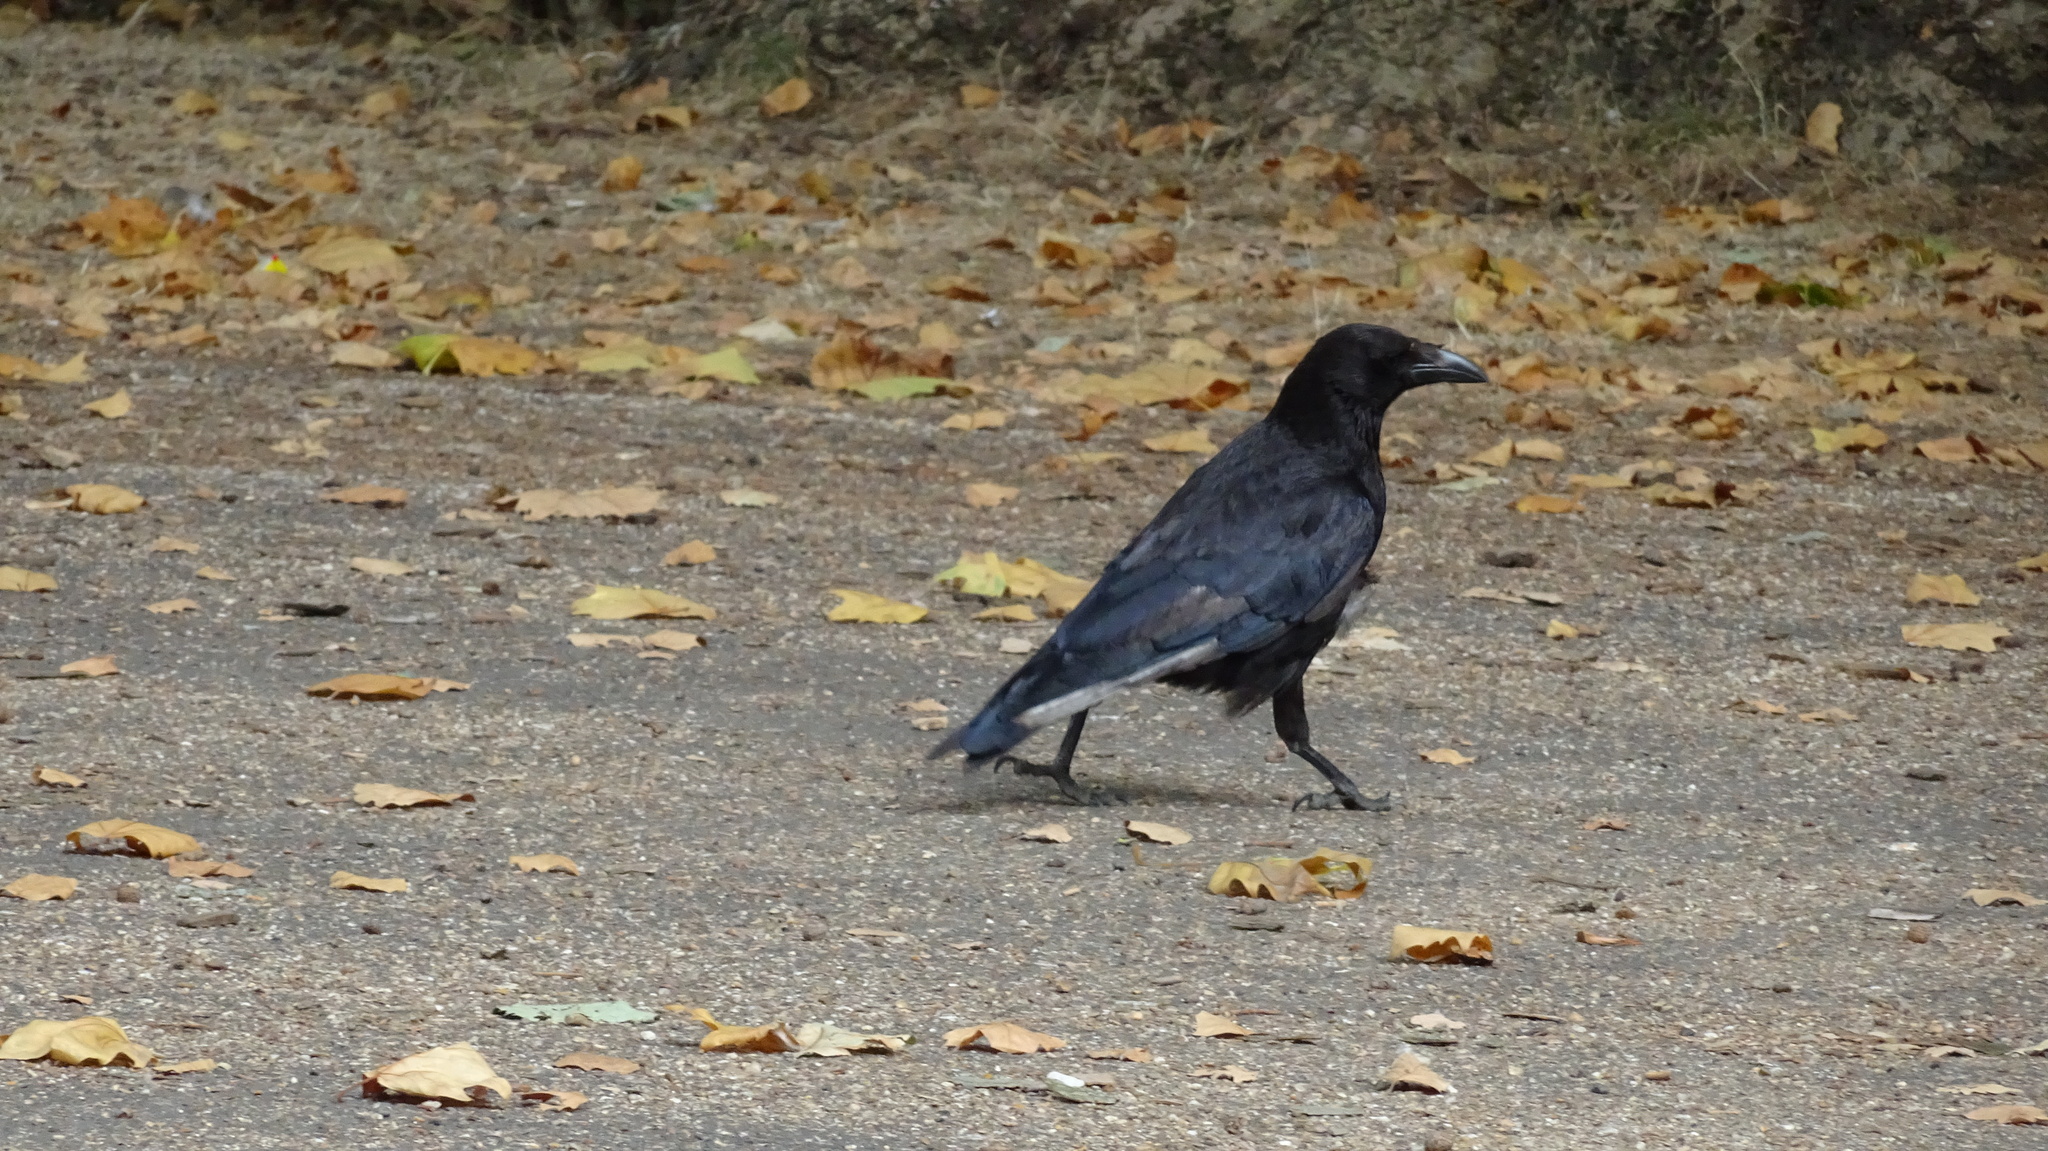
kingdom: Animalia
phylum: Chordata
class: Aves
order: Passeriformes
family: Corvidae
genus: Corvus
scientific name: Corvus corone
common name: Carrion crow
